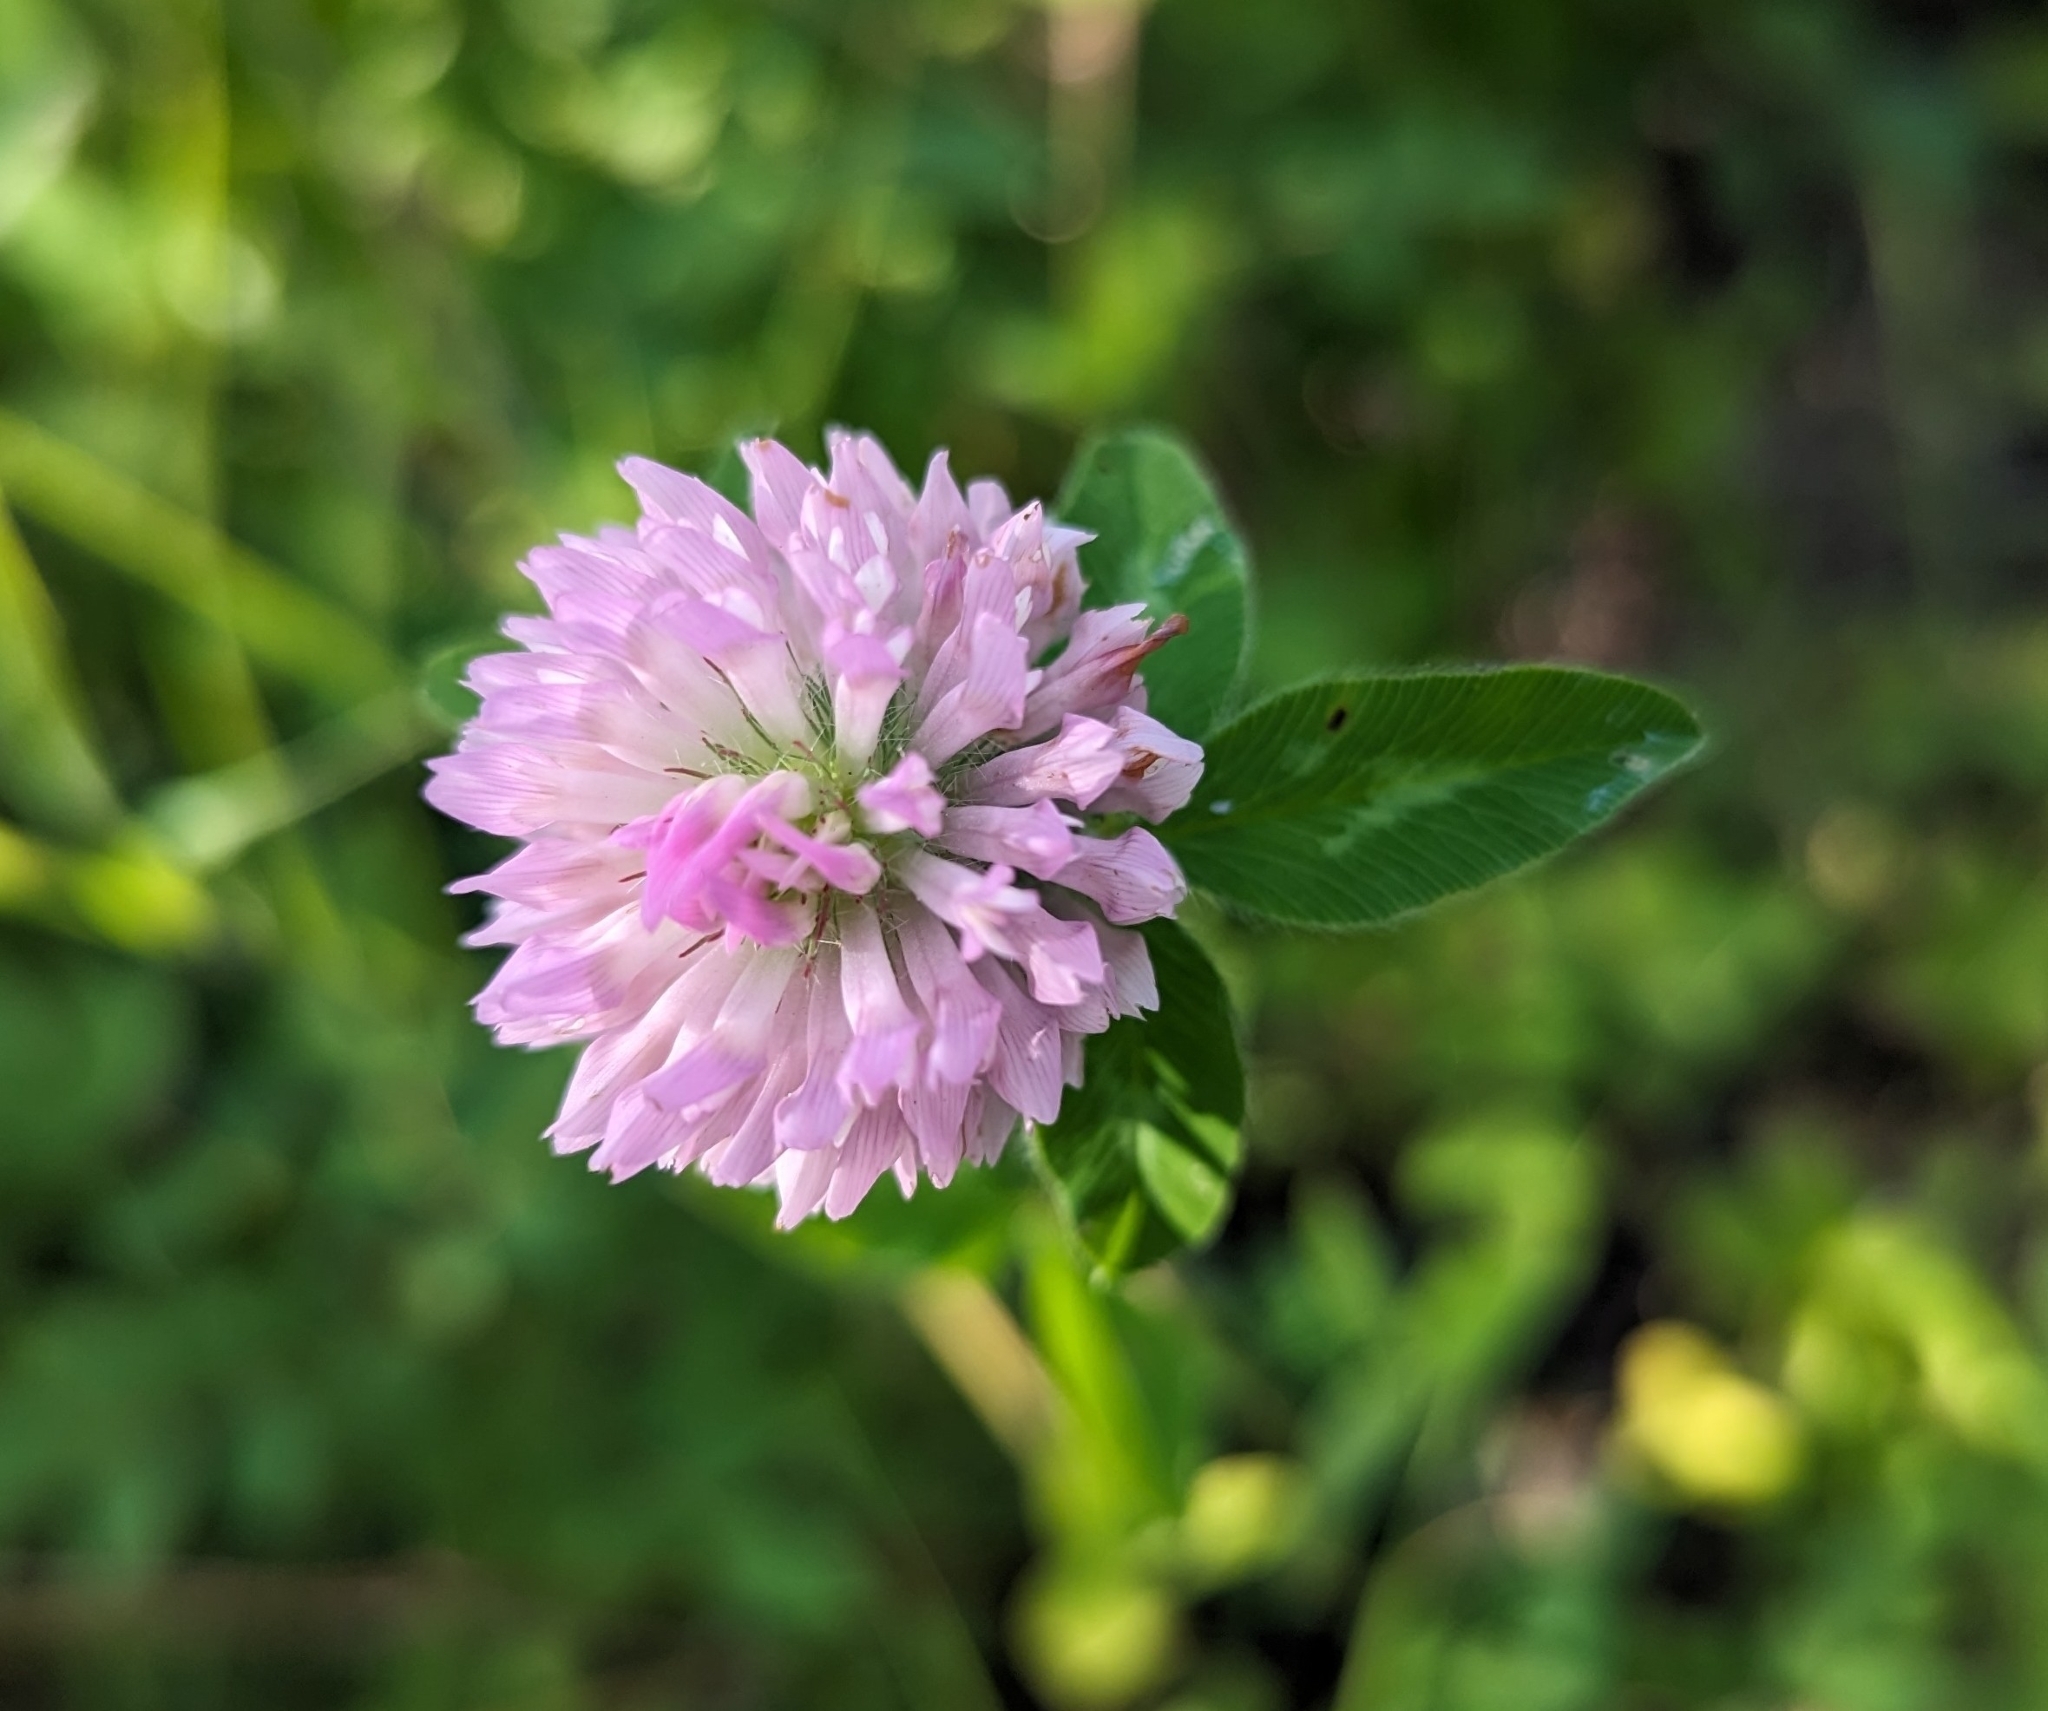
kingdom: Plantae
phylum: Tracheophyta
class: Magnoliopsida
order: Fabales
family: Fabaceae
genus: Trifolium
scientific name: Trifolium pratense
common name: Red clover
